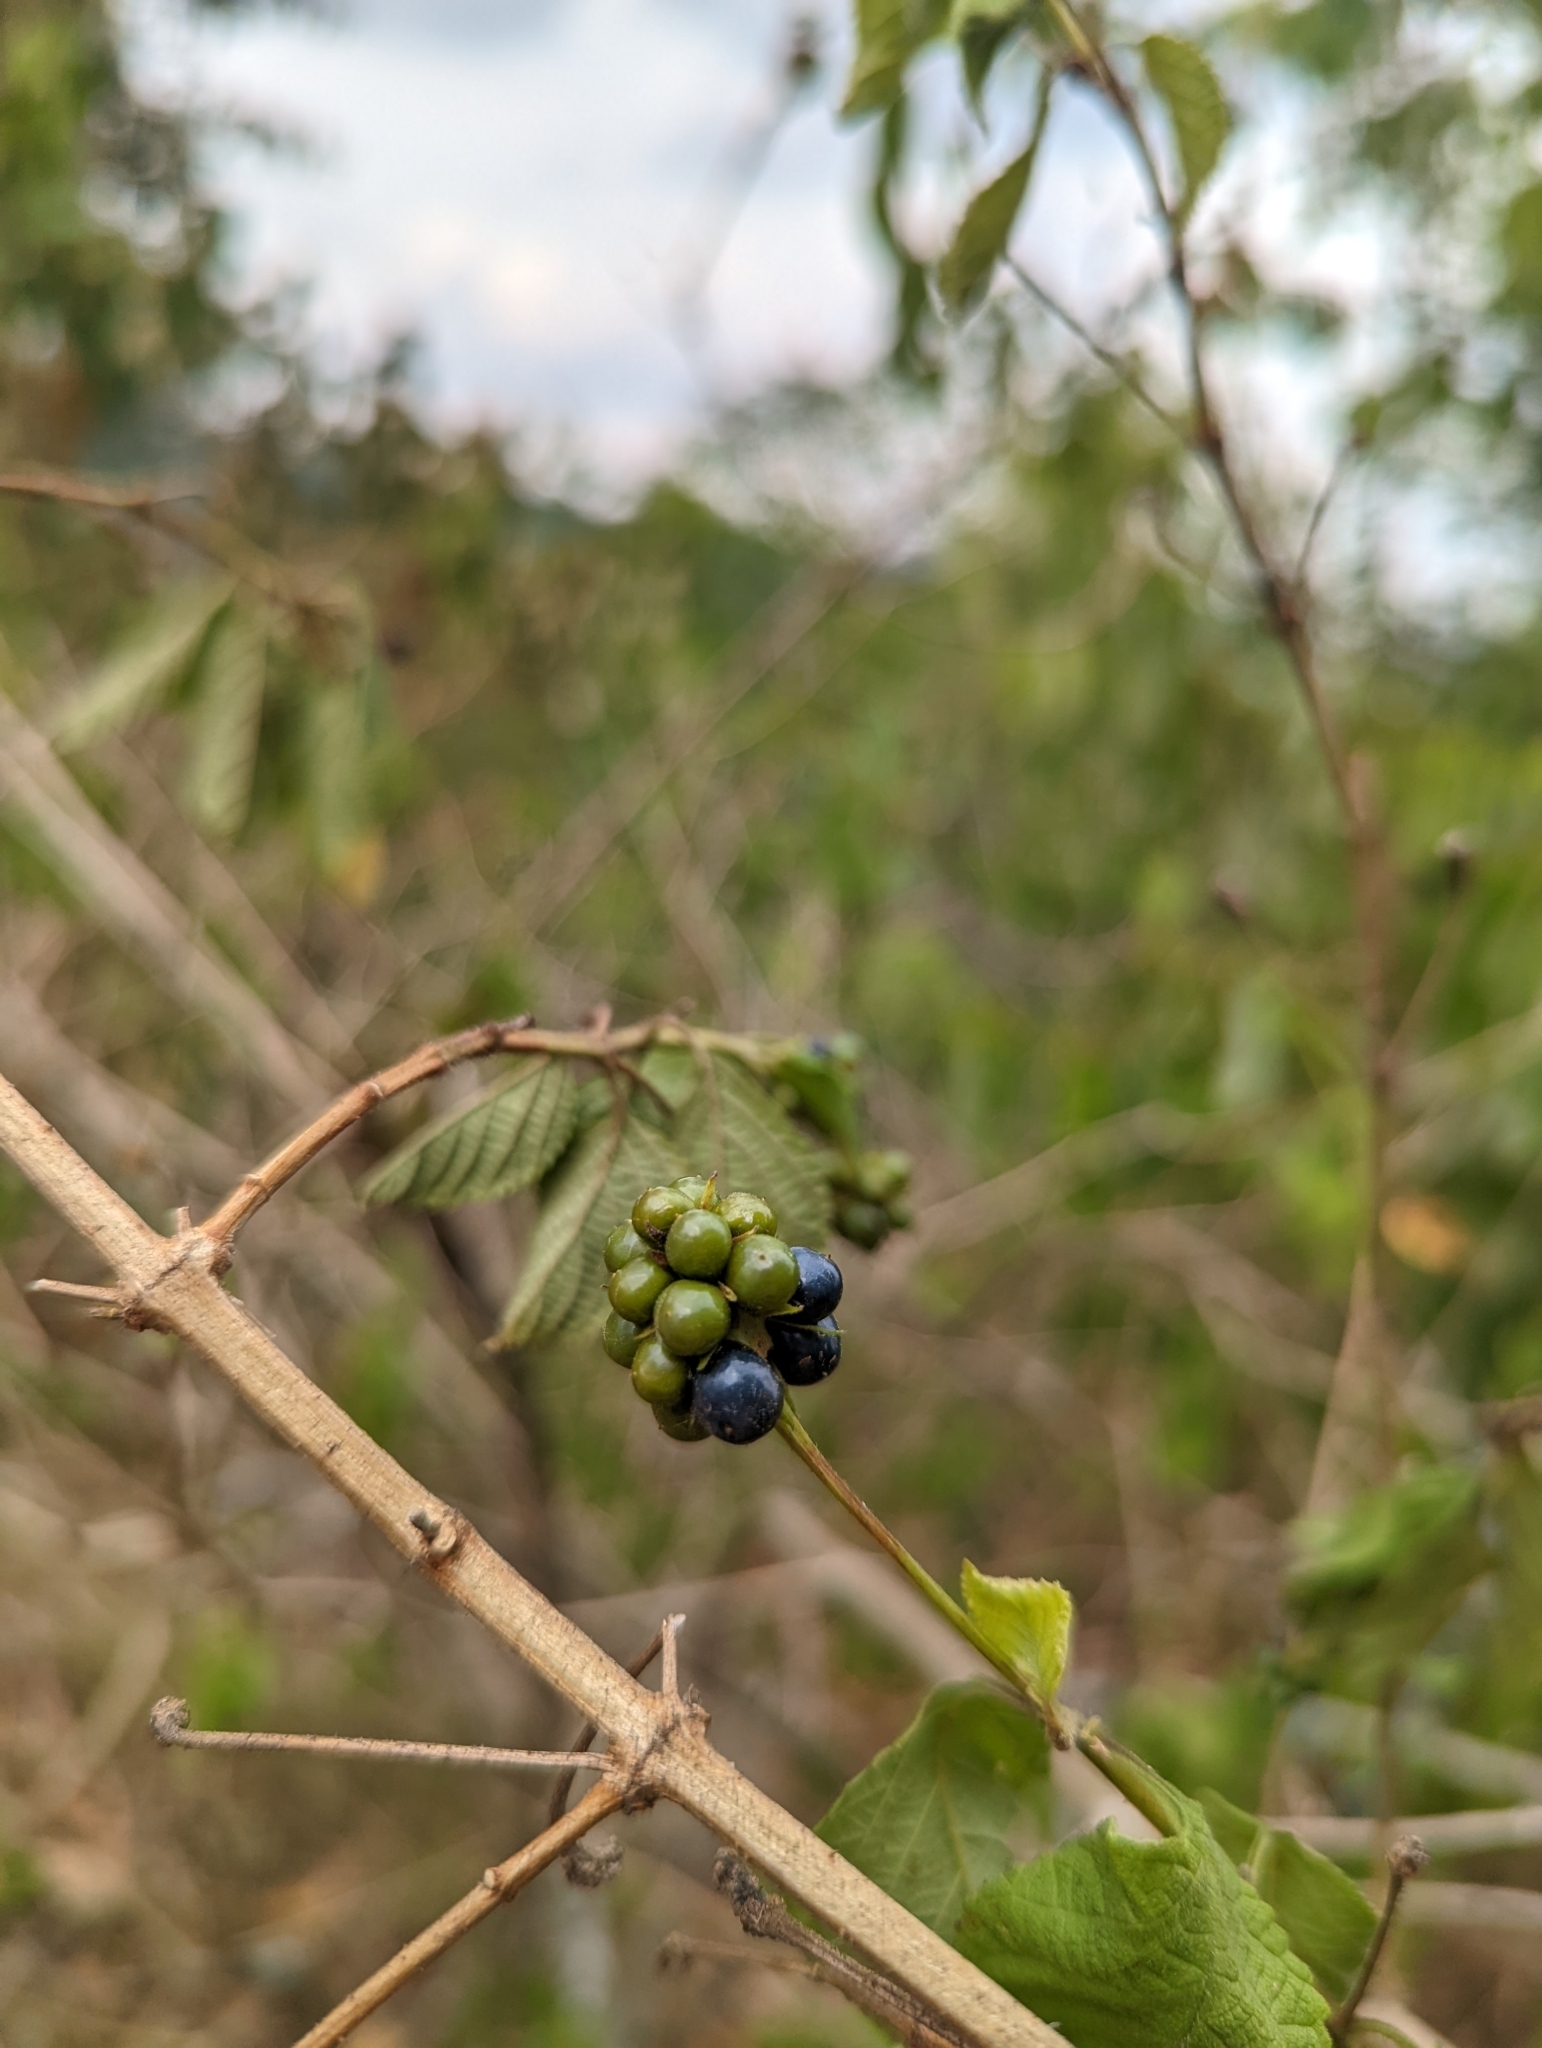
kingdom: Plantae
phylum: Tracheophyta
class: Magnoliopsida
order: Lamiales
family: Verbenaceae
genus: Lantana
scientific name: Lantana camara
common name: Lantana
